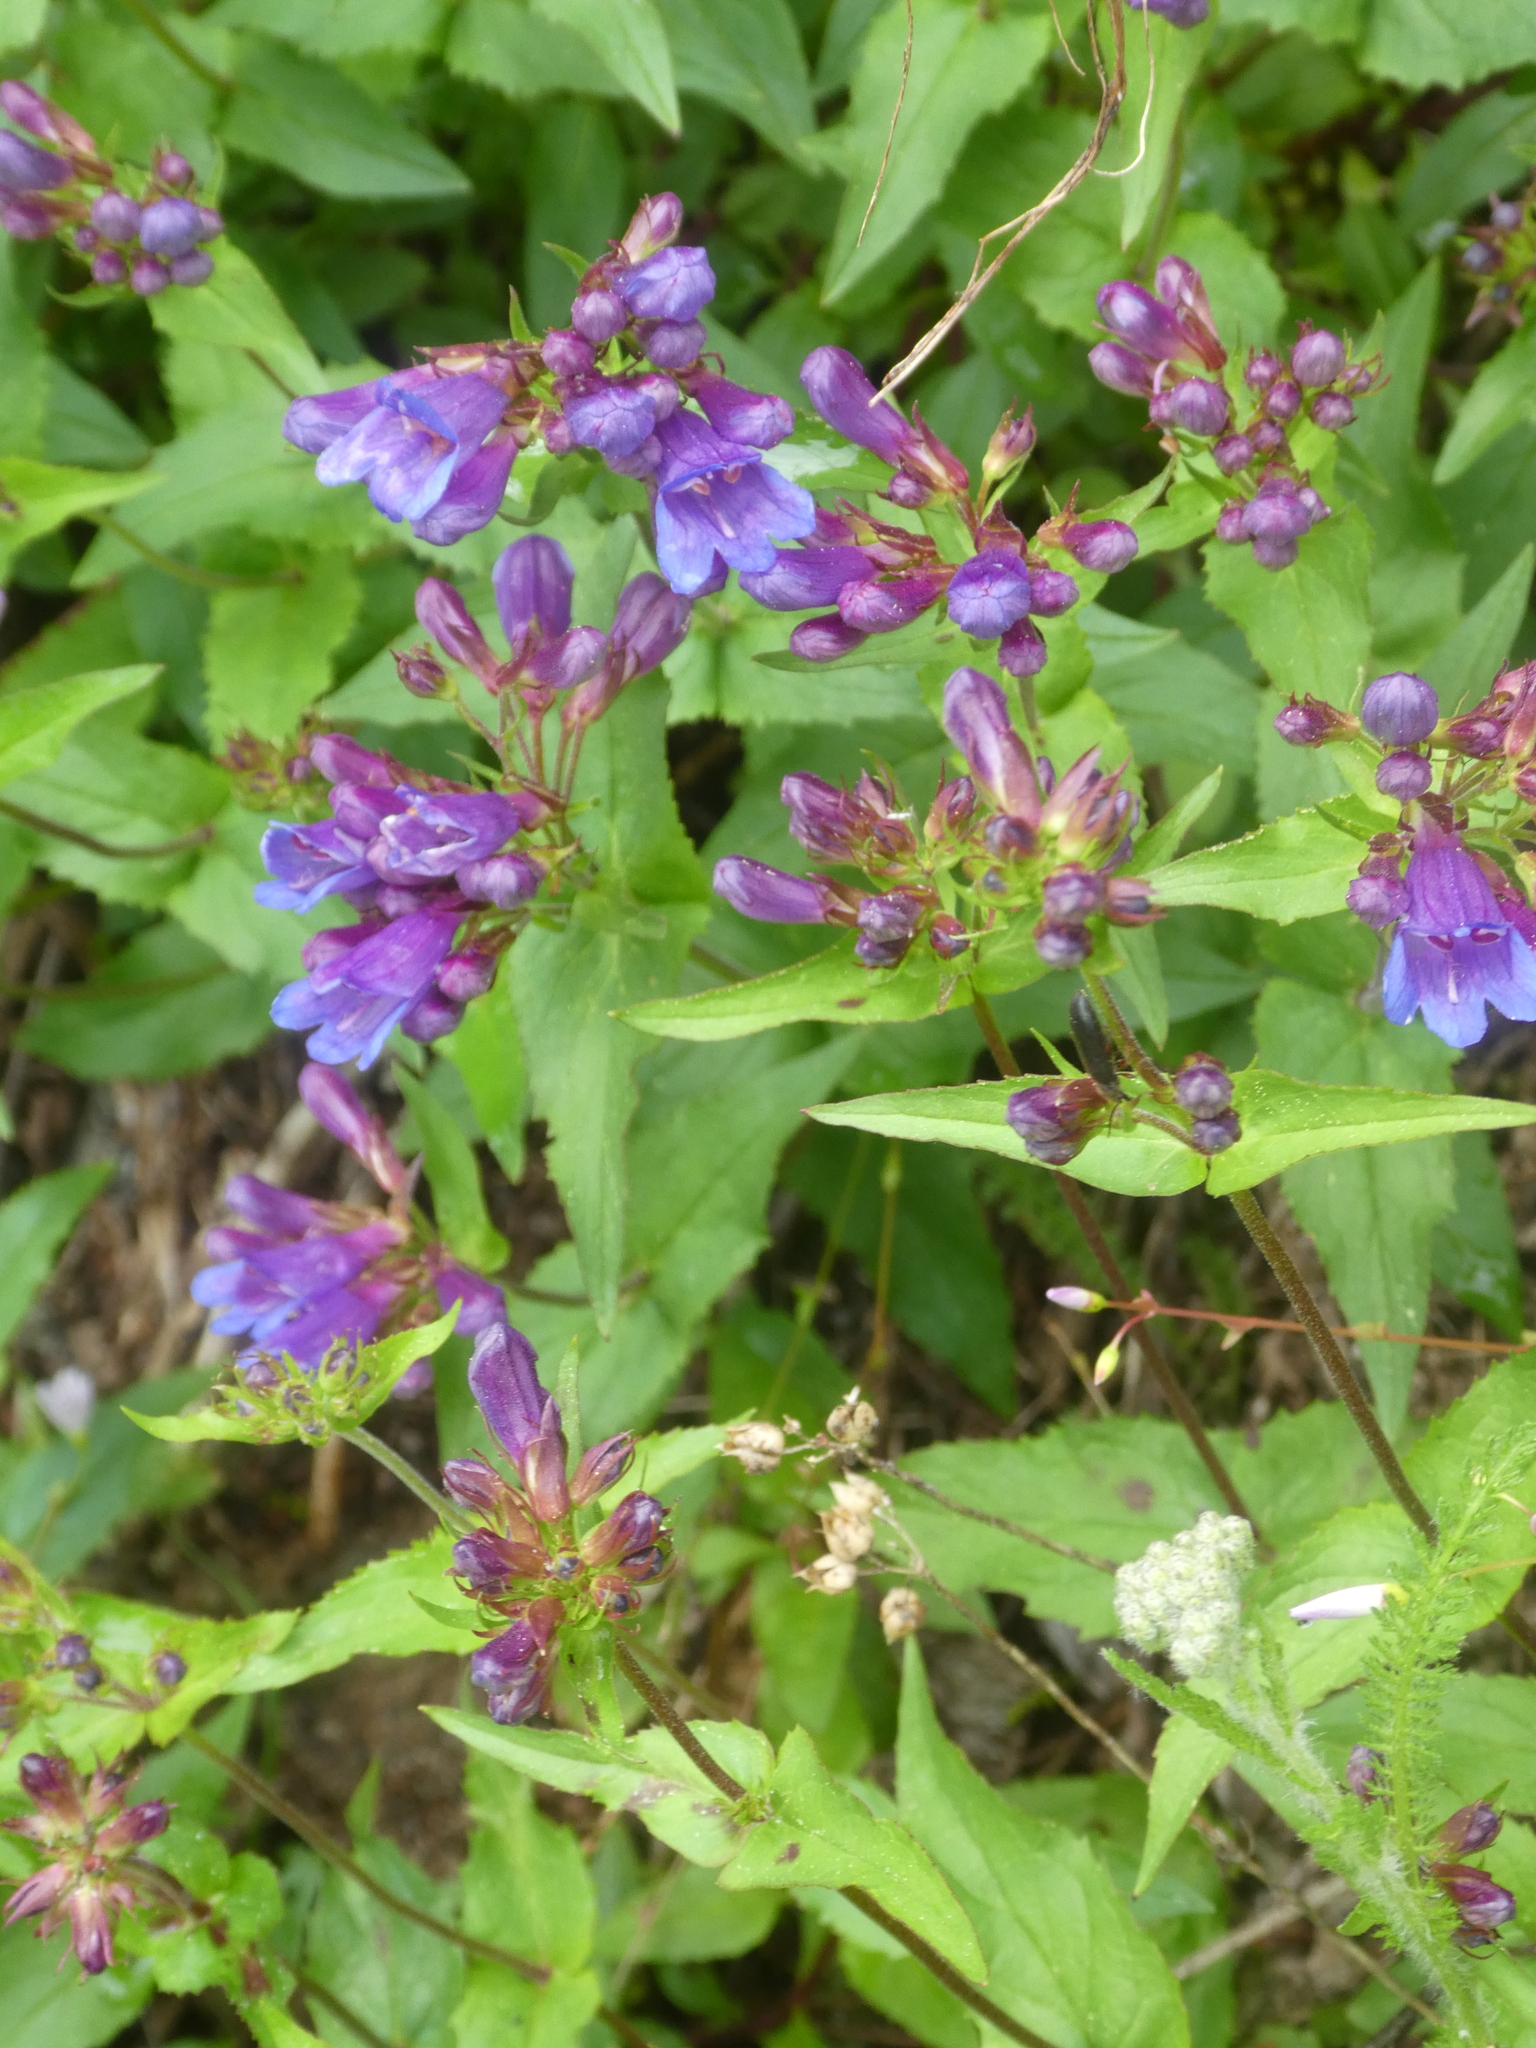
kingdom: Plantae
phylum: Tracheophyta
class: Magnoliopsida
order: Lamiales
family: Plantaginaceae
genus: Penstemon
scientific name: Penstemon serrulatus
